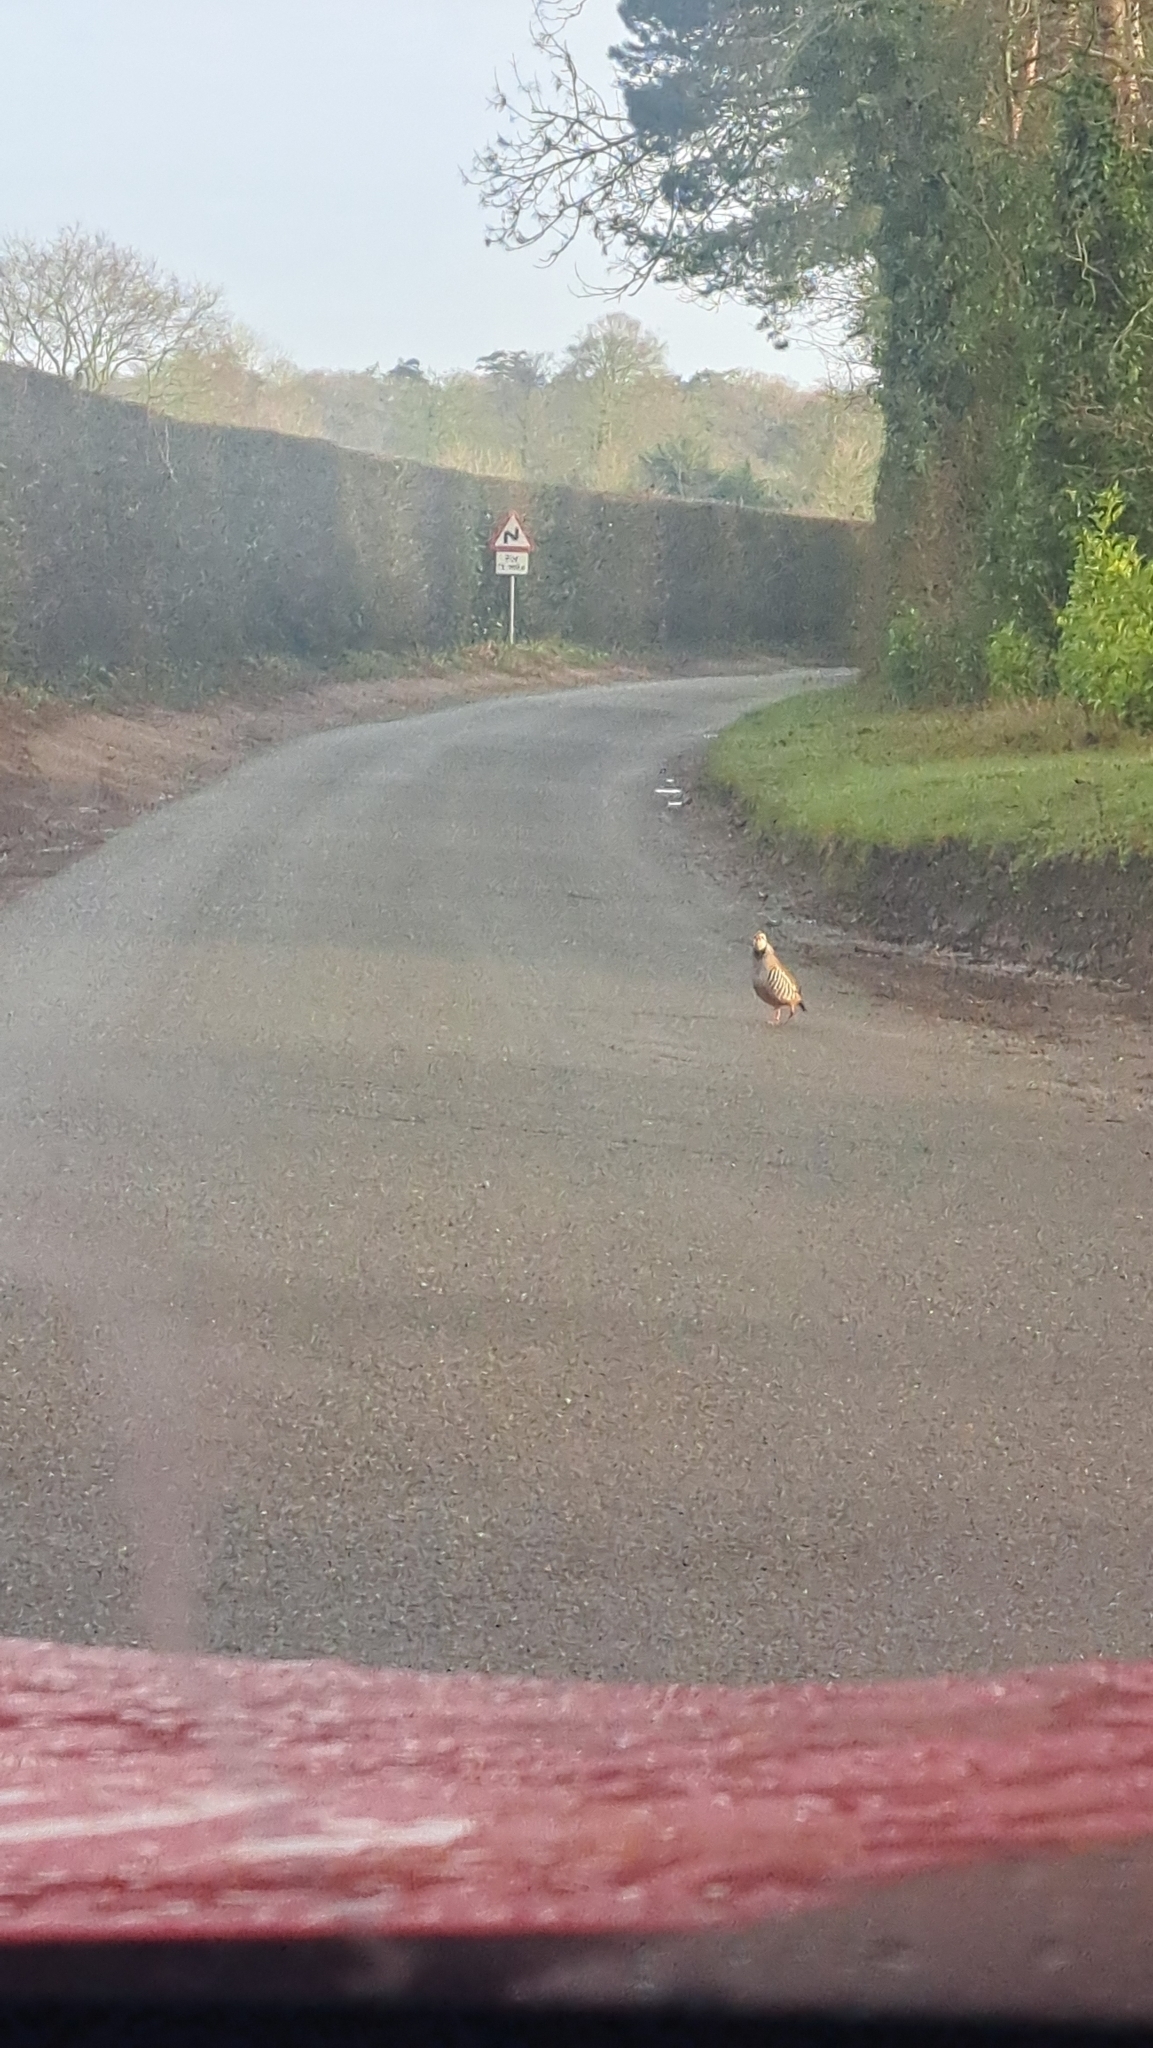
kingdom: Animalia
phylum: Chordata
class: Aves
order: Galliformes
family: Phasianidae
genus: Alectoris
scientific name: Alectoris rufa
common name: Red-legged partridge
